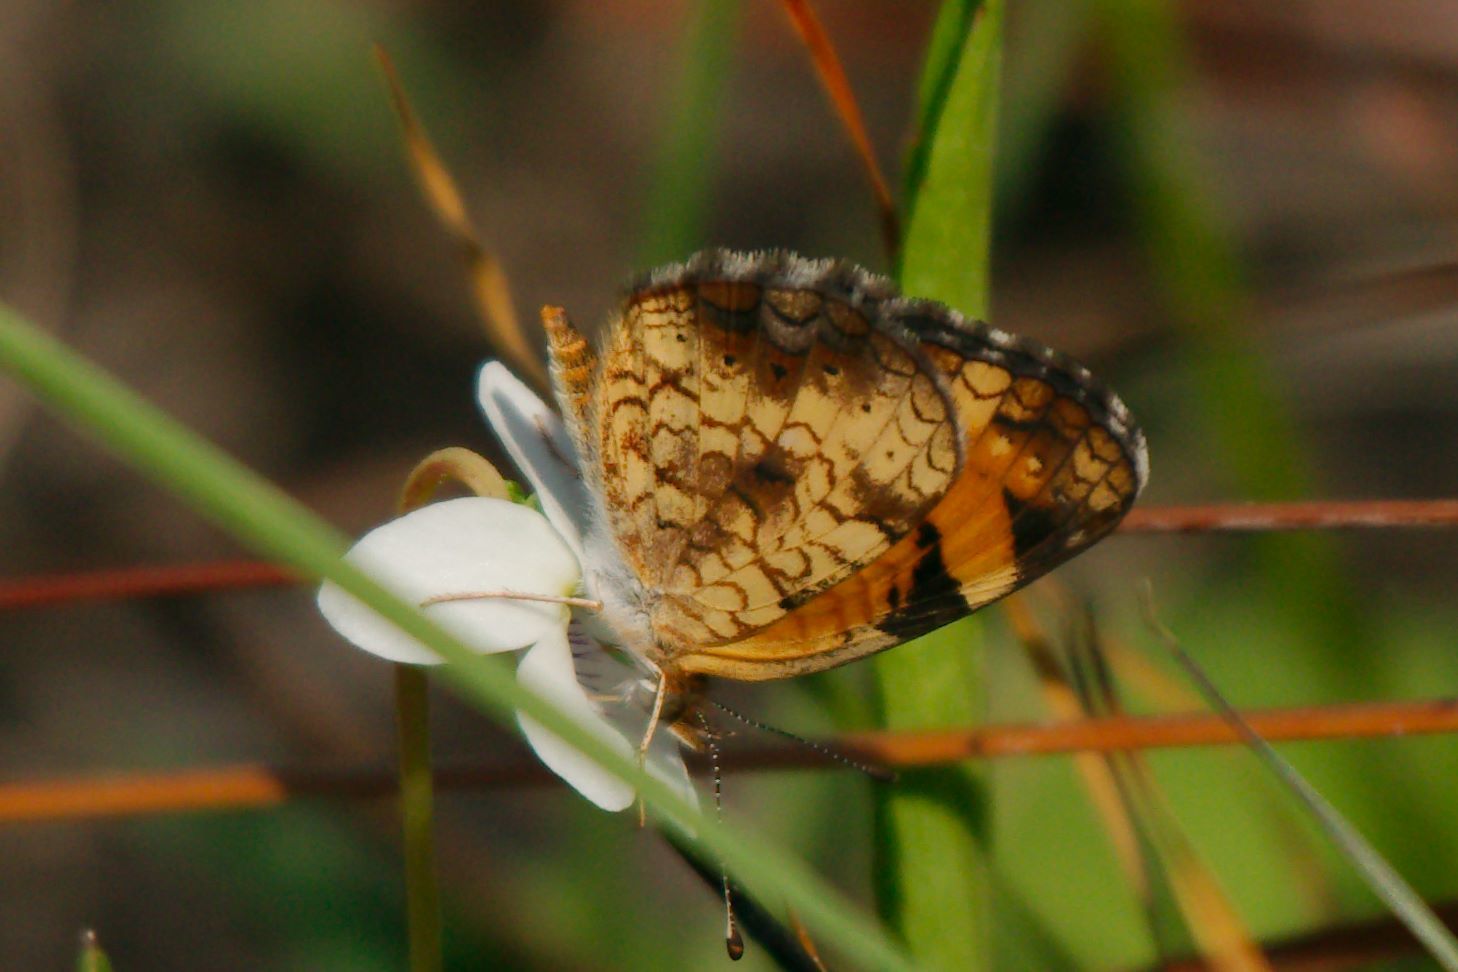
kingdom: Animalia
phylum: Arthropoda
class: Insecta
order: Lepidoptera
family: Nymphalidae
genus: Phyciodes
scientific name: Phyciodes tharos
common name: Pearl crescent
